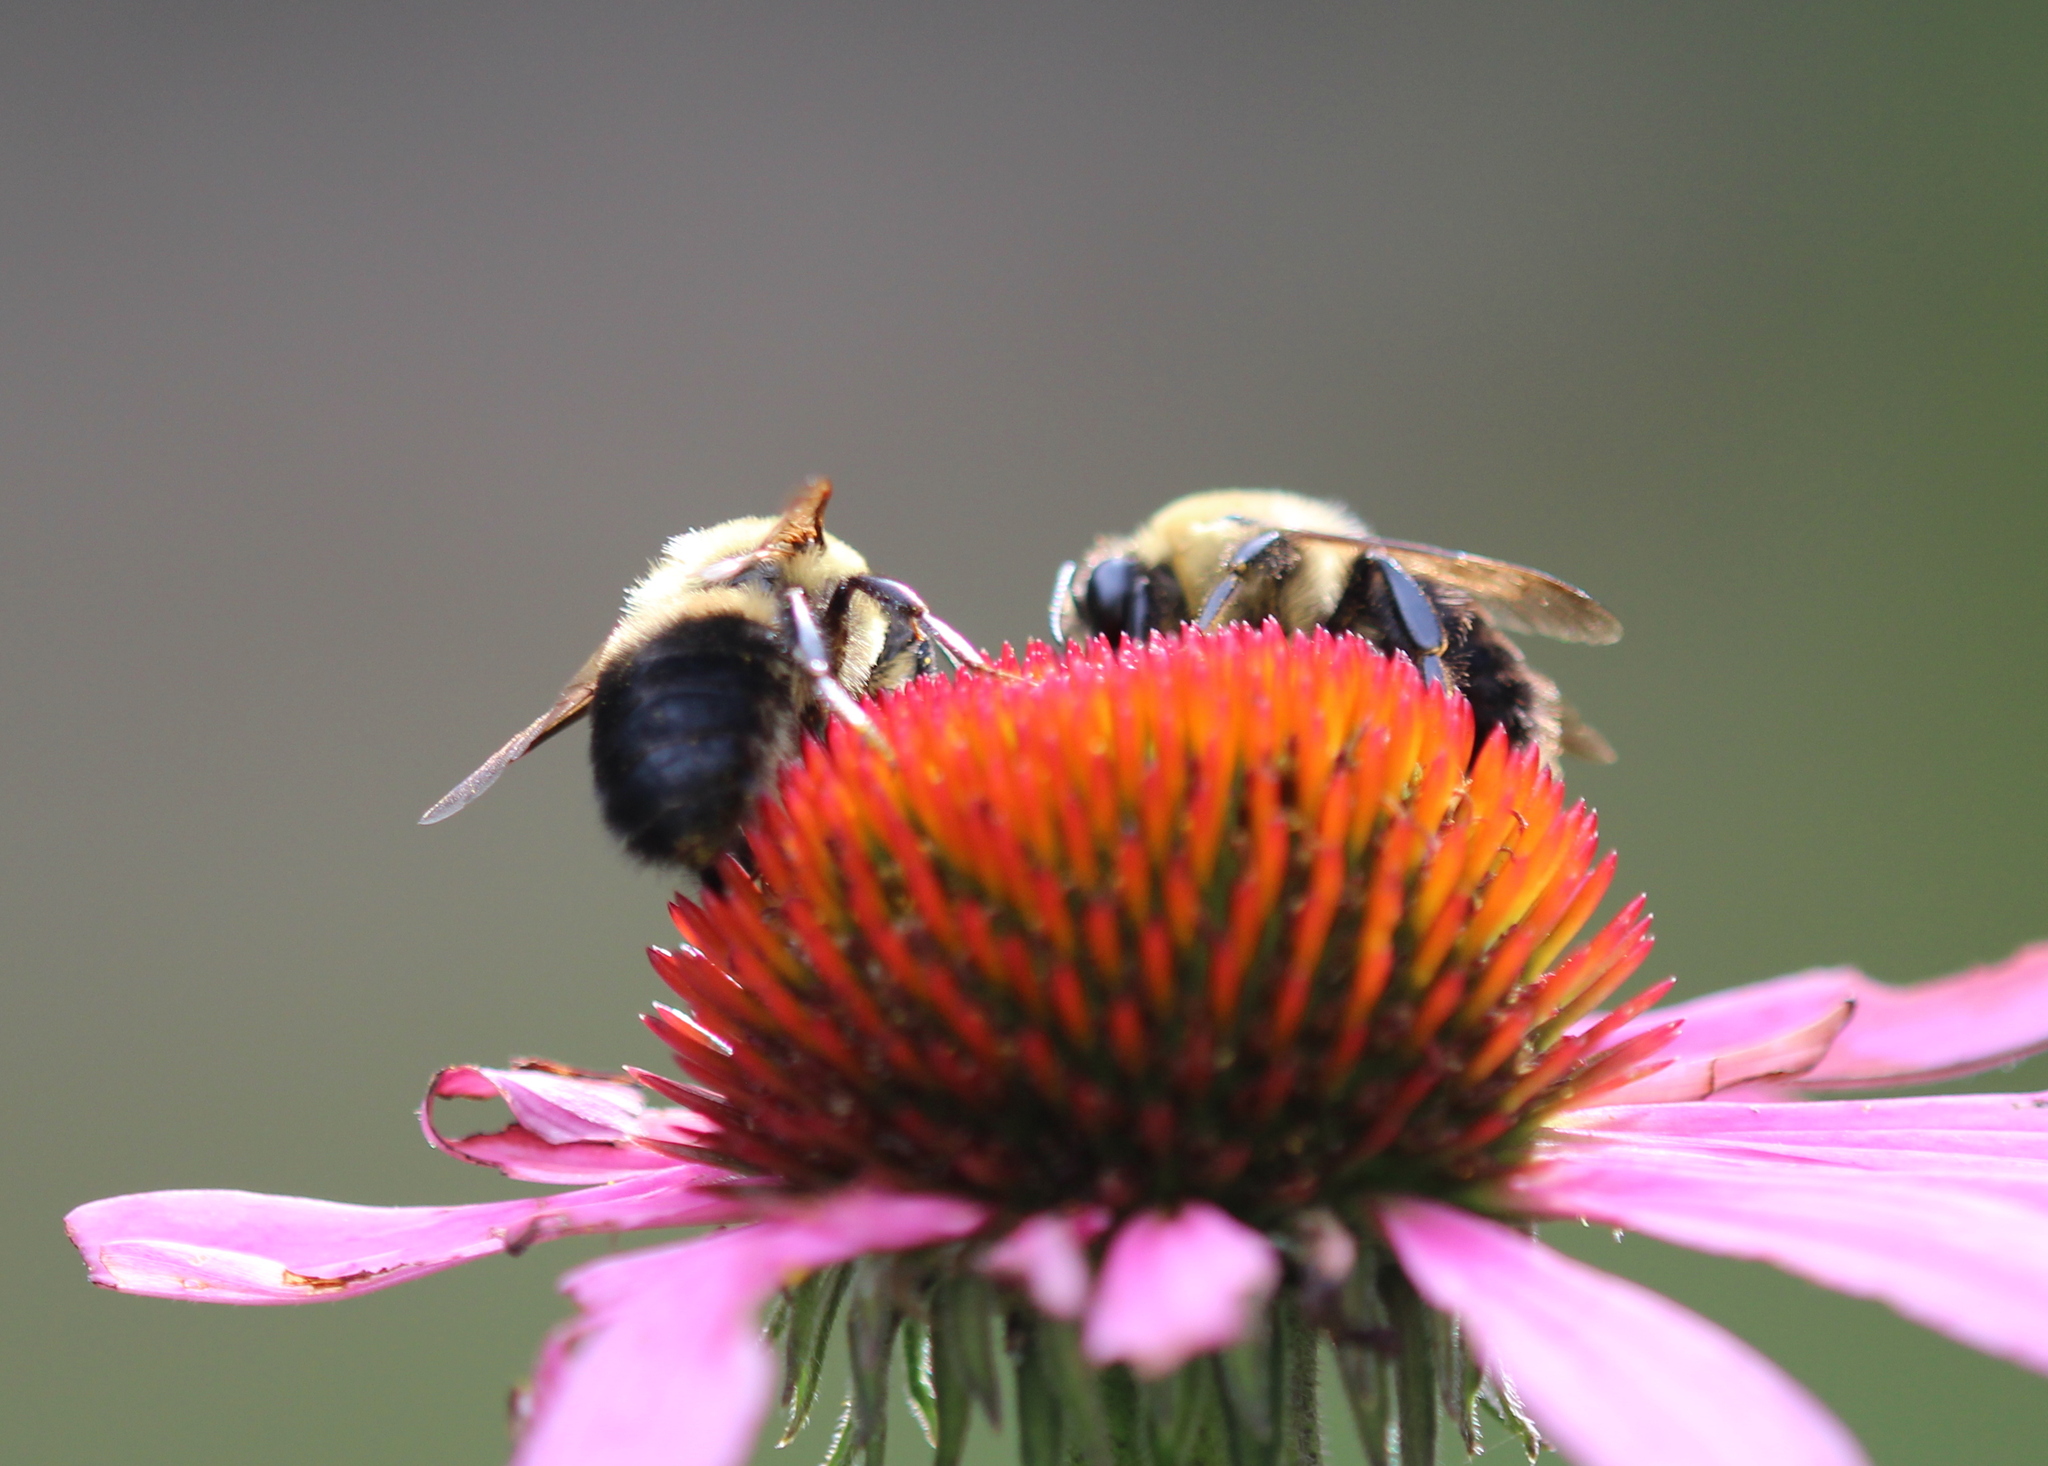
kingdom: Animalia
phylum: Arthropoda
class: Insecta
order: Hymenoptera
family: Apidae
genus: Bombus
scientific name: Bombus griseocollis
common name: Brown-belted bumble bee
